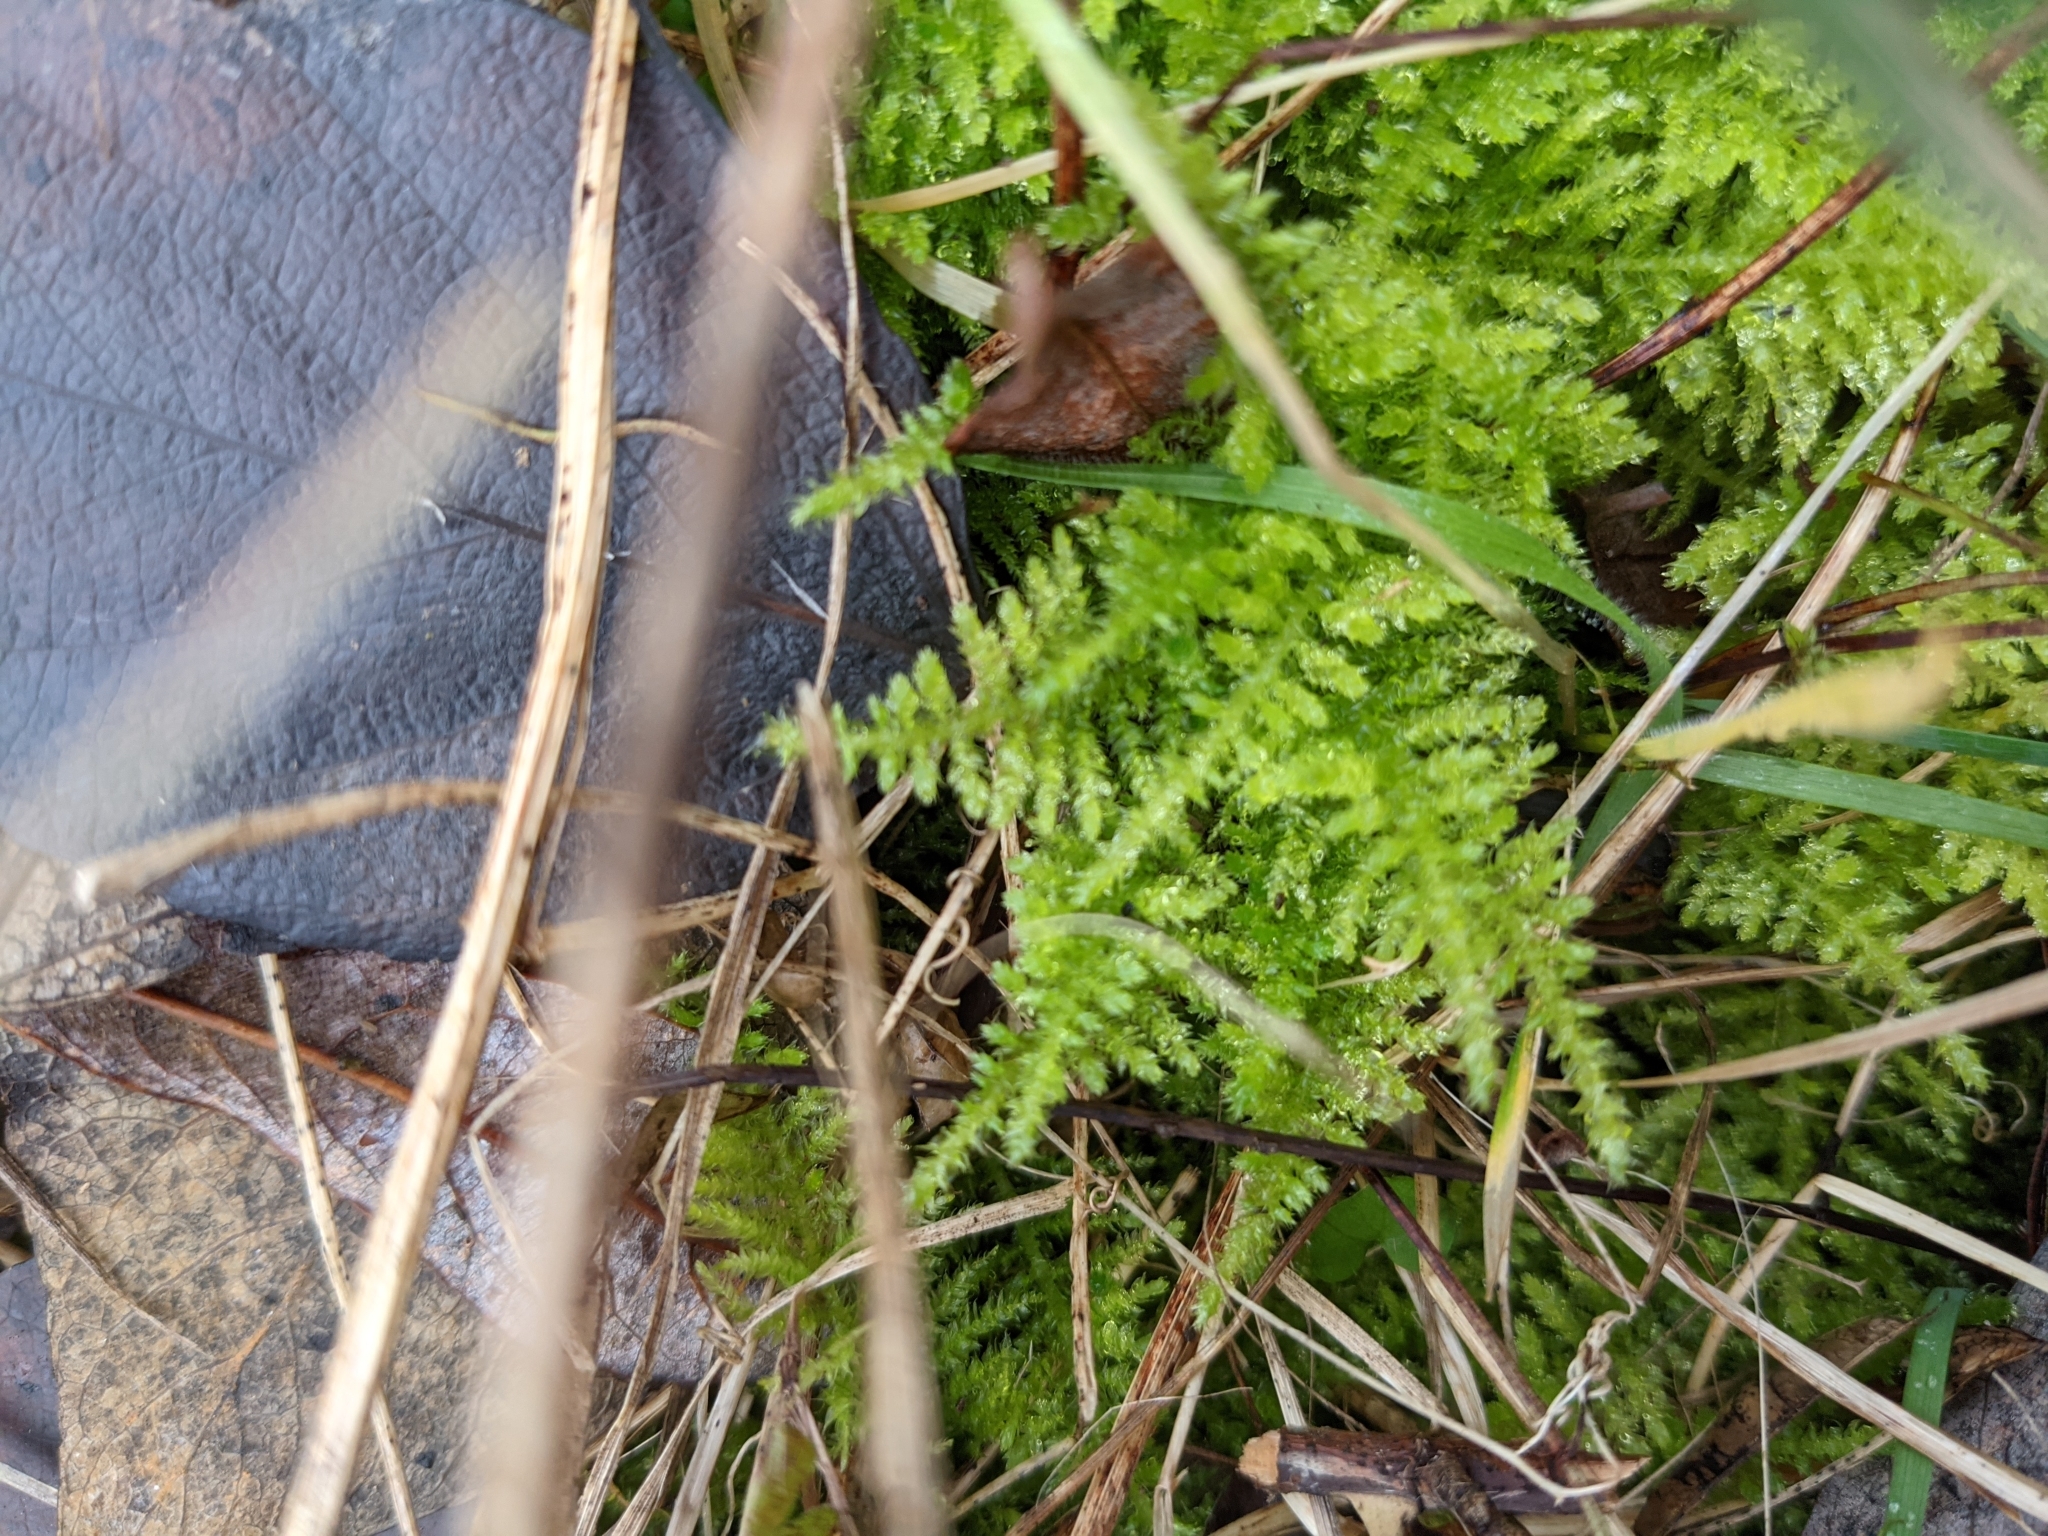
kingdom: Plantae
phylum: Bryophyta
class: Bryopsida
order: Hypnales
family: Brachytheciaceae
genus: Kindbergia
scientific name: Kindbergia oregana
